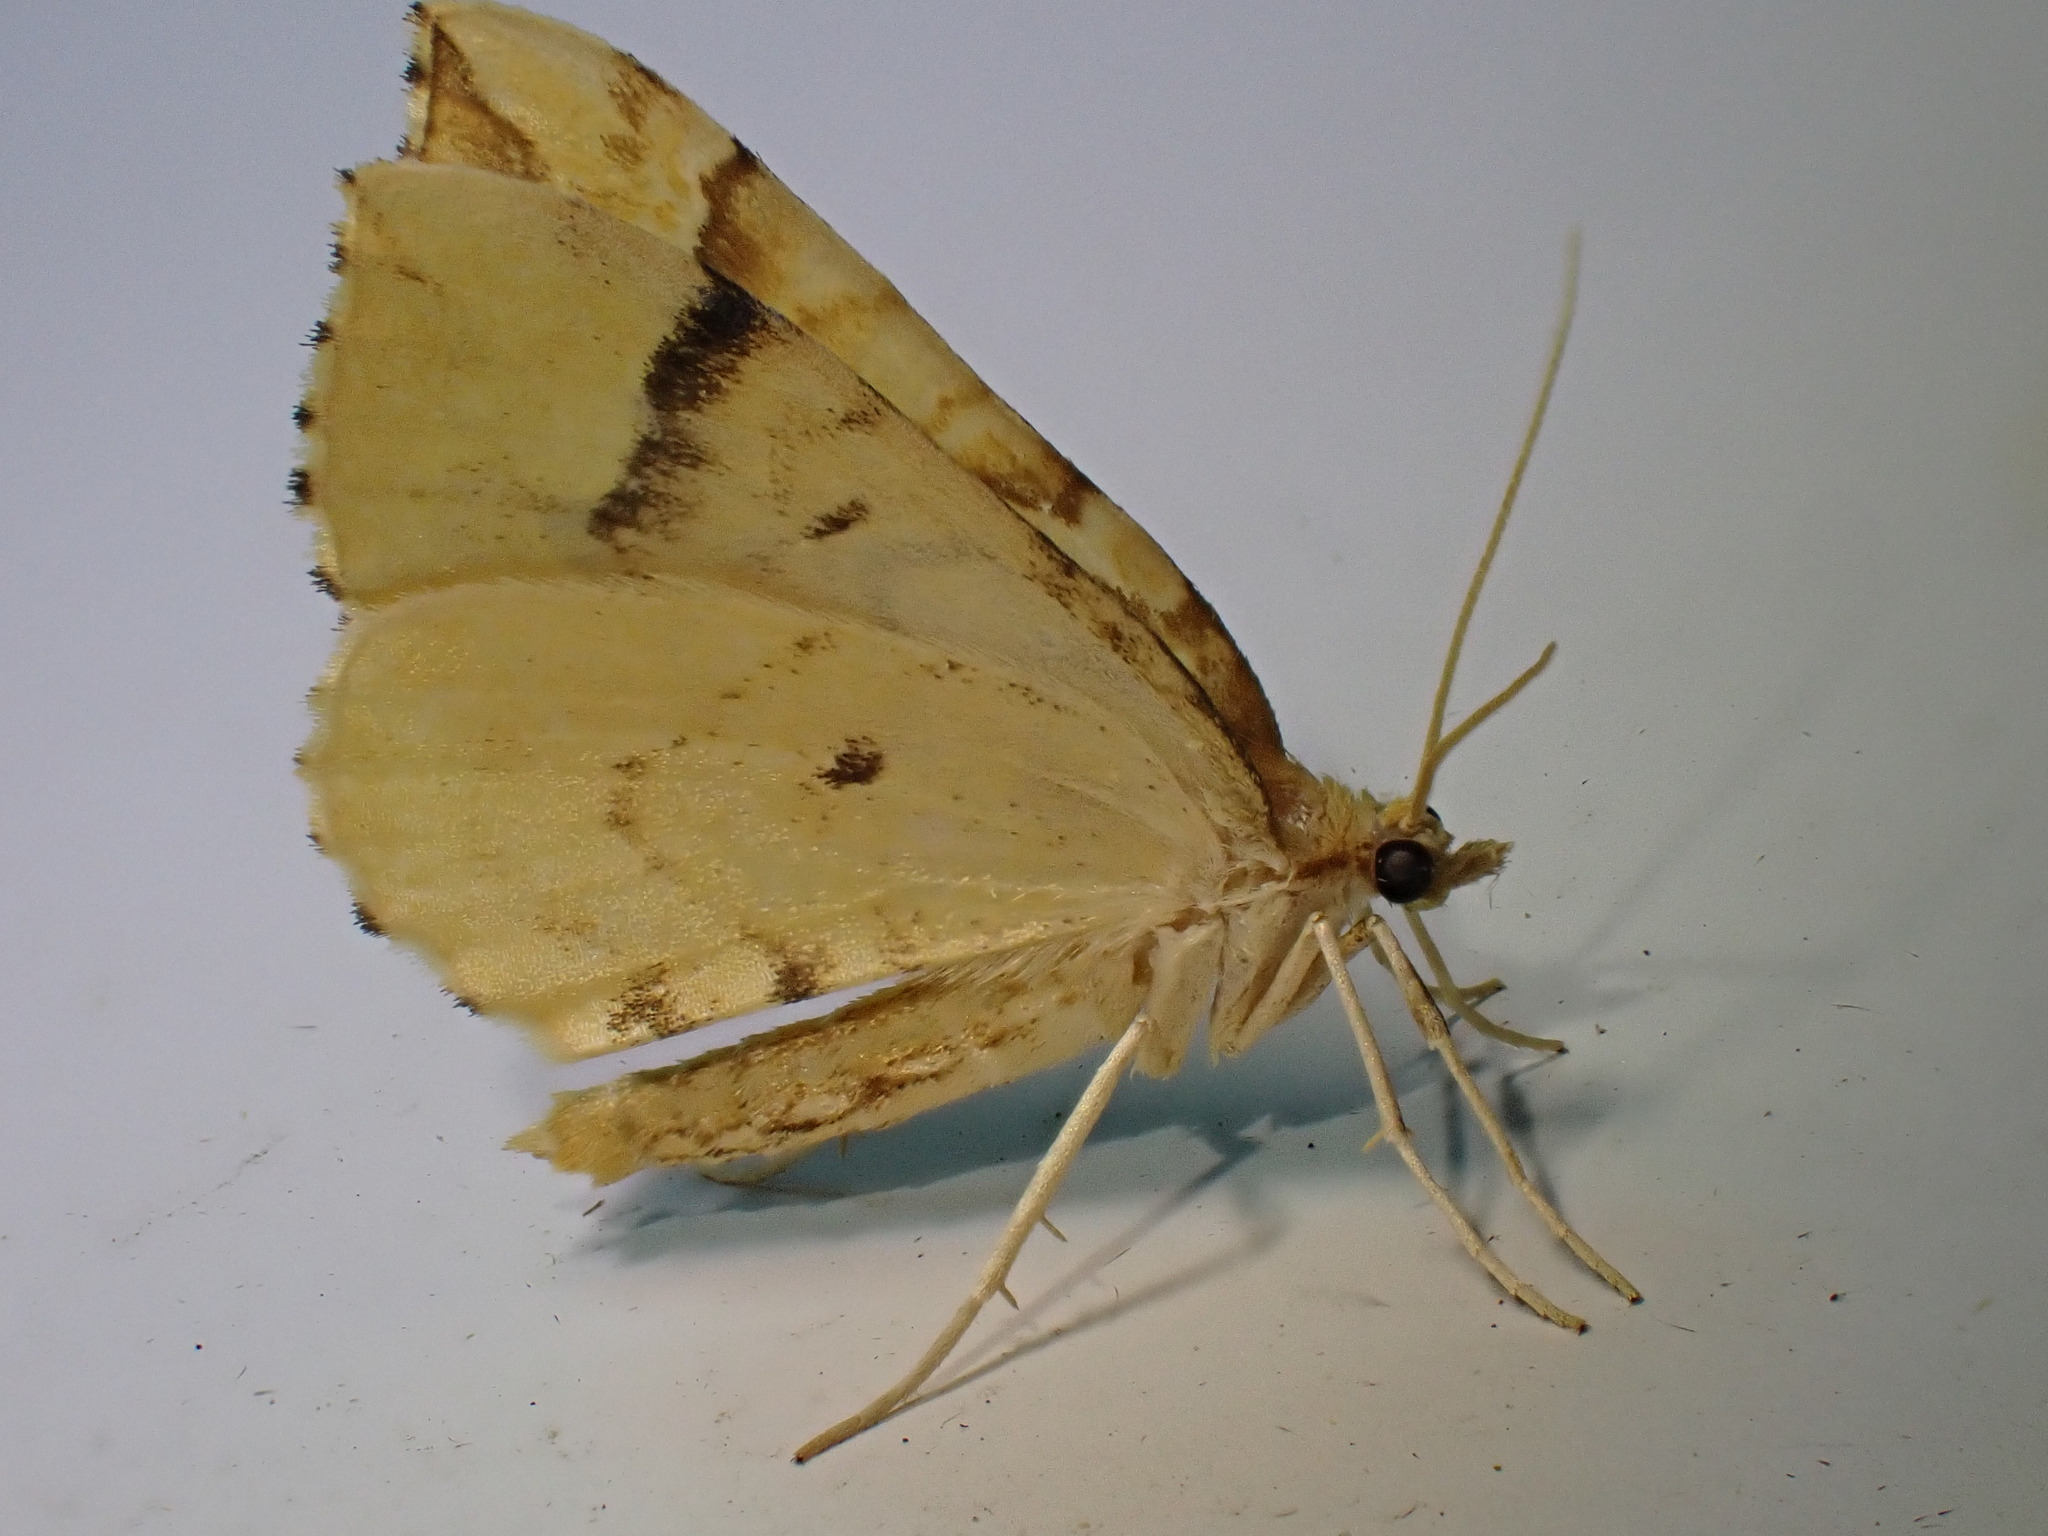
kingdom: Animalia
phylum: Arthropoda
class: Insecta
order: Lepidoptera
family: Geometridae
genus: Eulithis
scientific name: Eulithis mellinata
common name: Spinach
